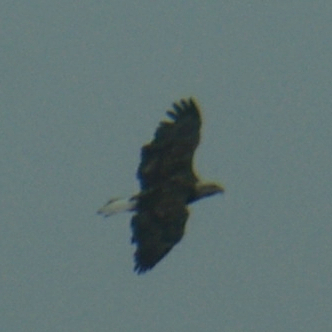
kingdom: Animalia
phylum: Chordata
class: Aves
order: Accipitriformes
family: Accipitridae
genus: Haliaeetus
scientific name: Haliaeetus leucocephalus
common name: Bald eagle
